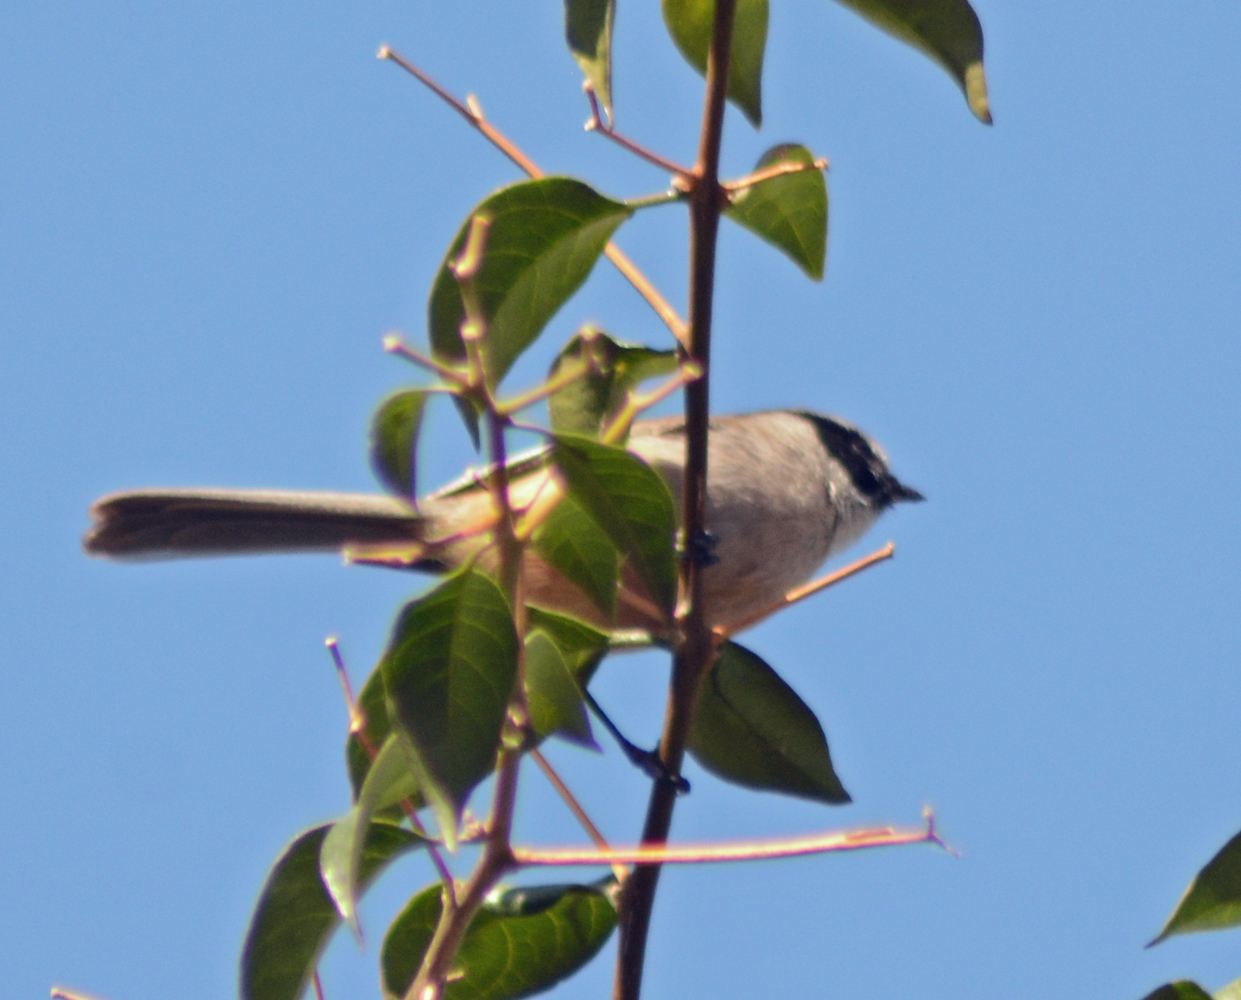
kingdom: Animalia
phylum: Chordata
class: Aves
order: Passeriformes
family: Aegithalidae
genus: Psaltriparus
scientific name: Psaltriparus minimus
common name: American bushtit
